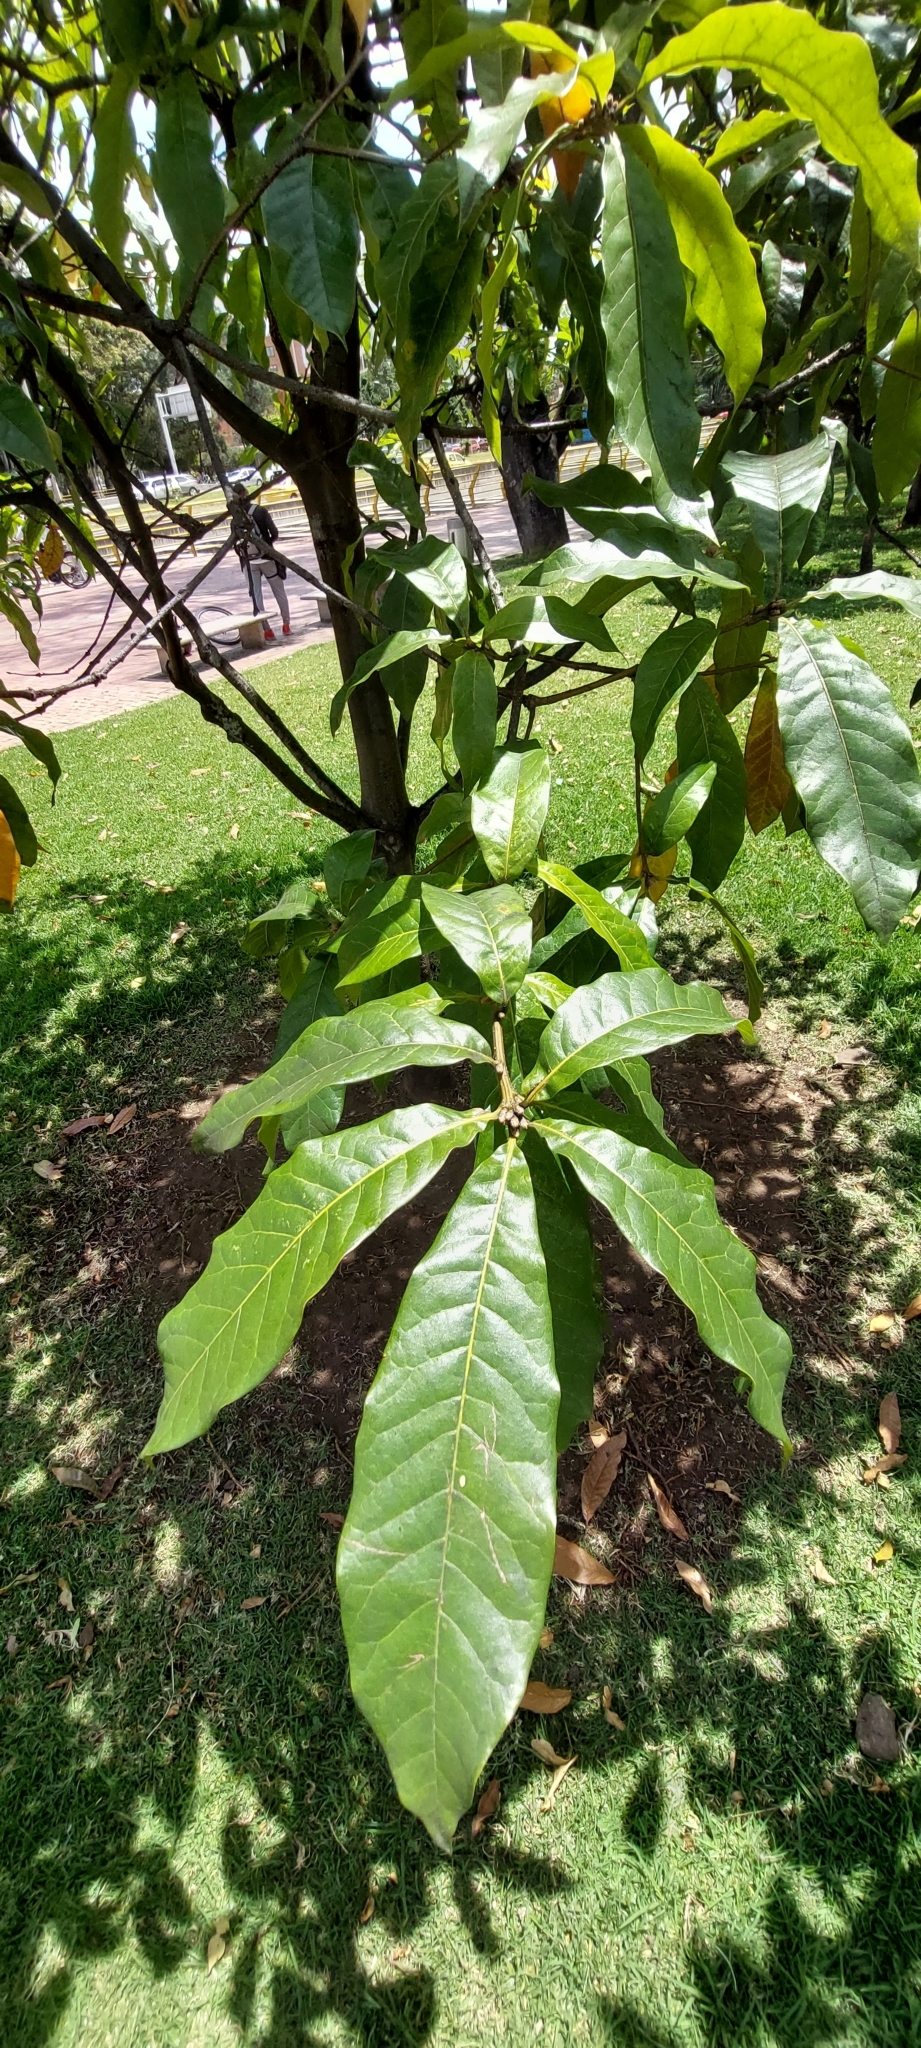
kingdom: Plantae
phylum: Tracheophyta
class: Magnoliopsida
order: Fagales
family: Fagaceae
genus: Quercus
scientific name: Quercus humboldtii
